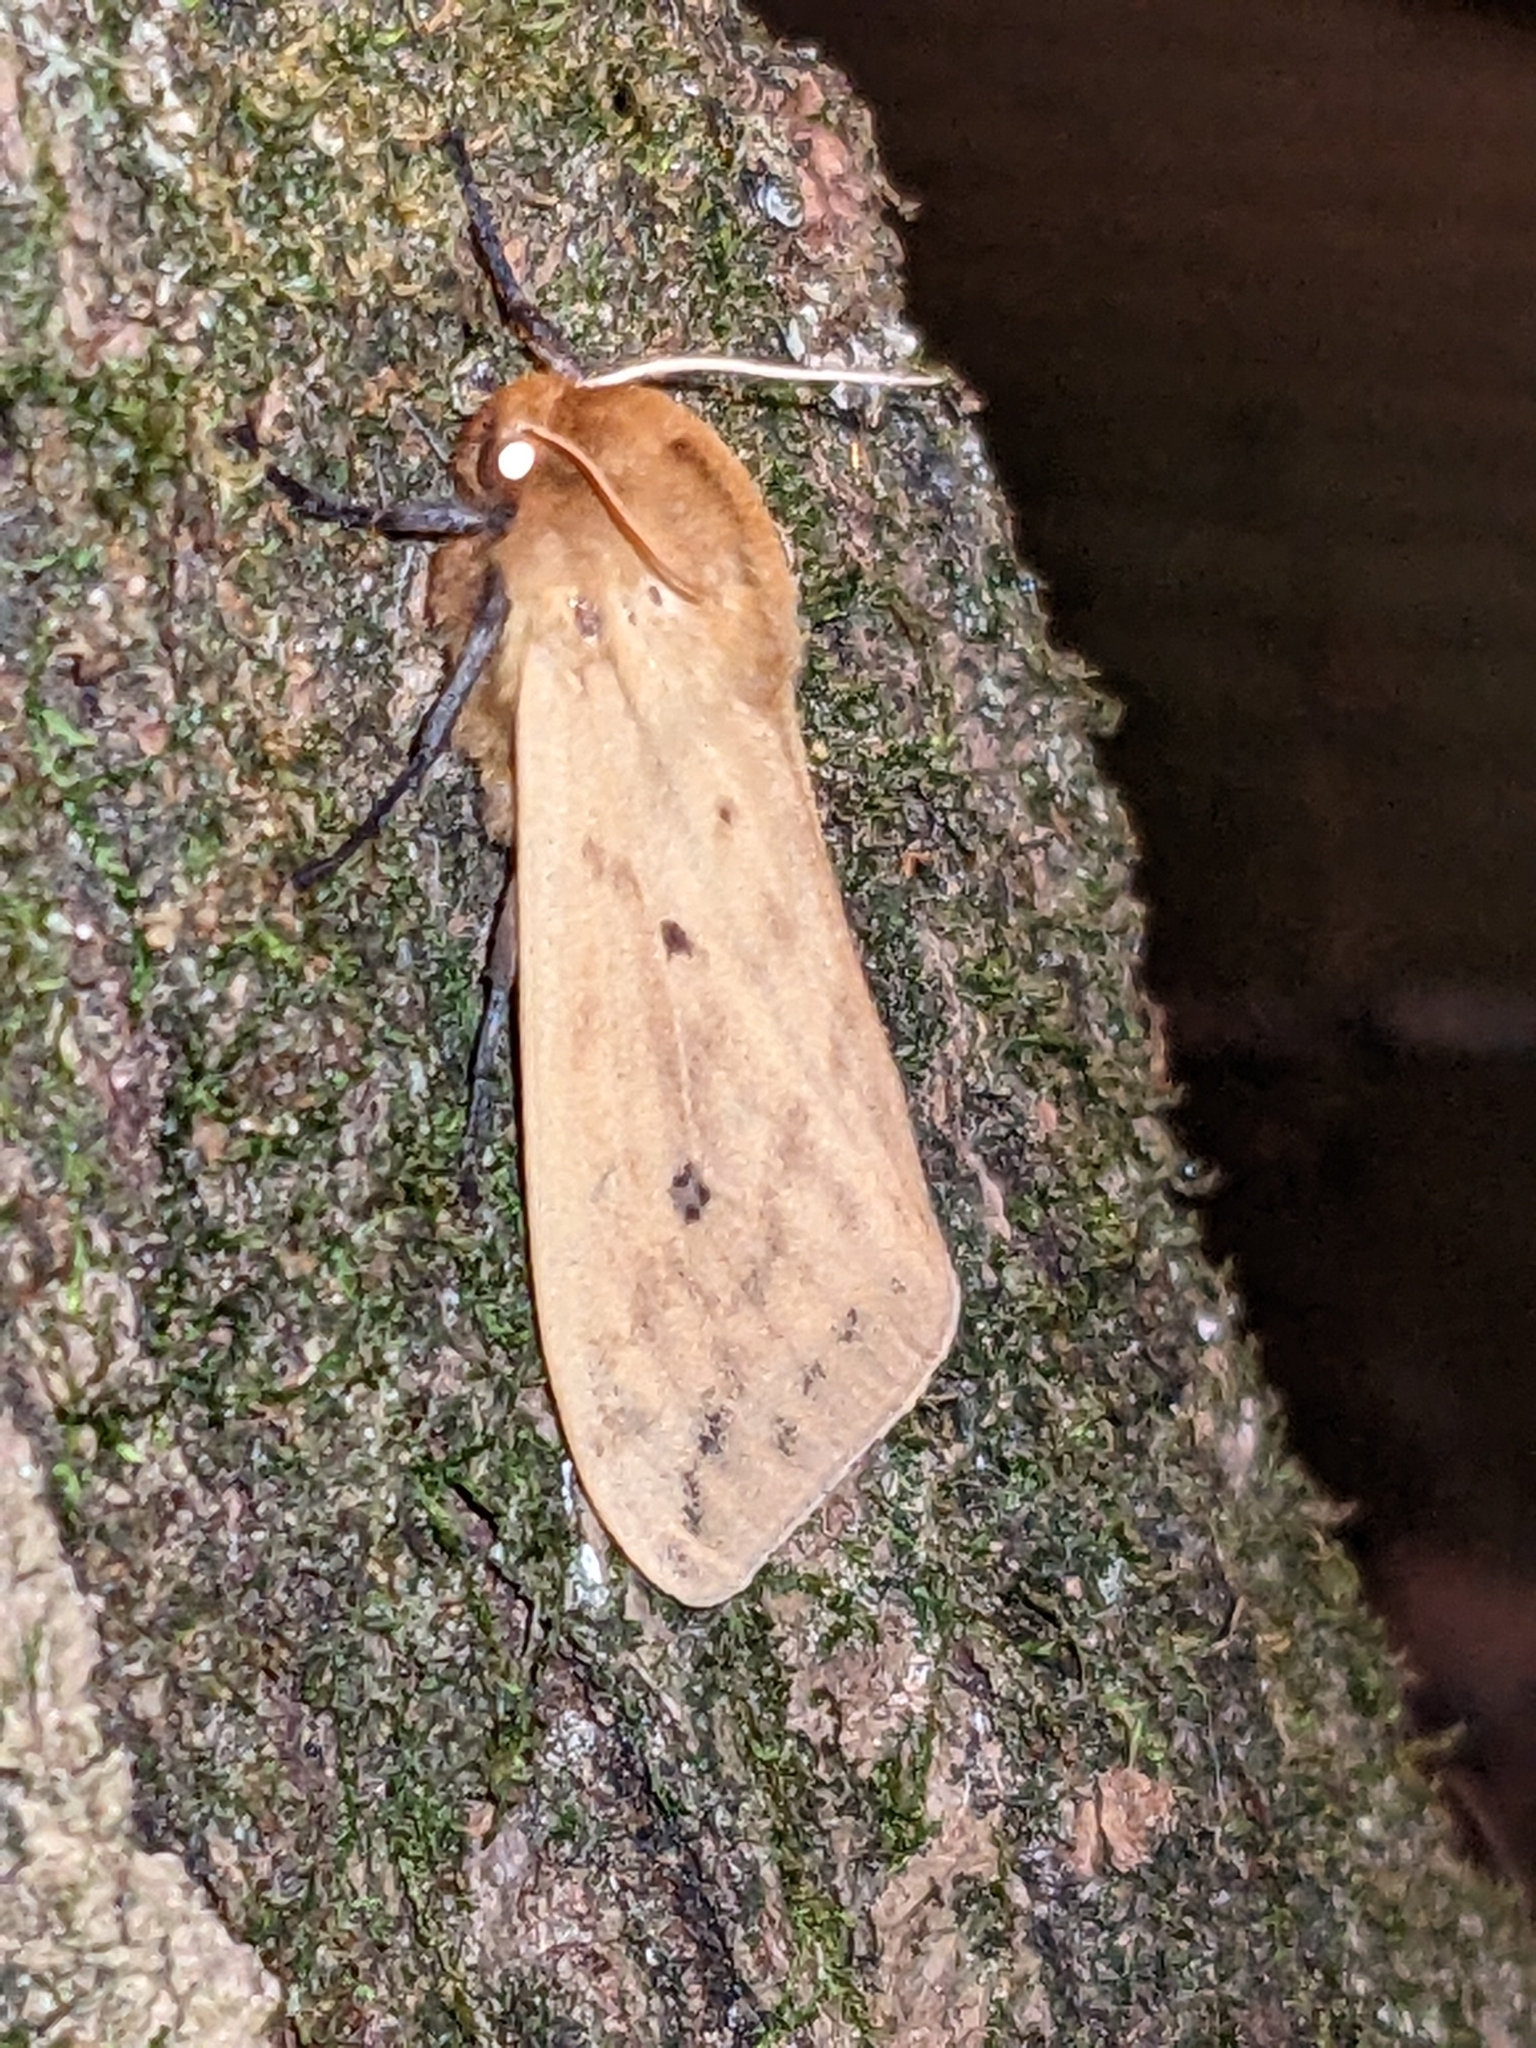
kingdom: Animalia
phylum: Arthropoda
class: Insecta
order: Lepidoptera
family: Erebidae
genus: Pyrrharctia
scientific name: Pyrrharctia isabella
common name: Isabella tiger moth
